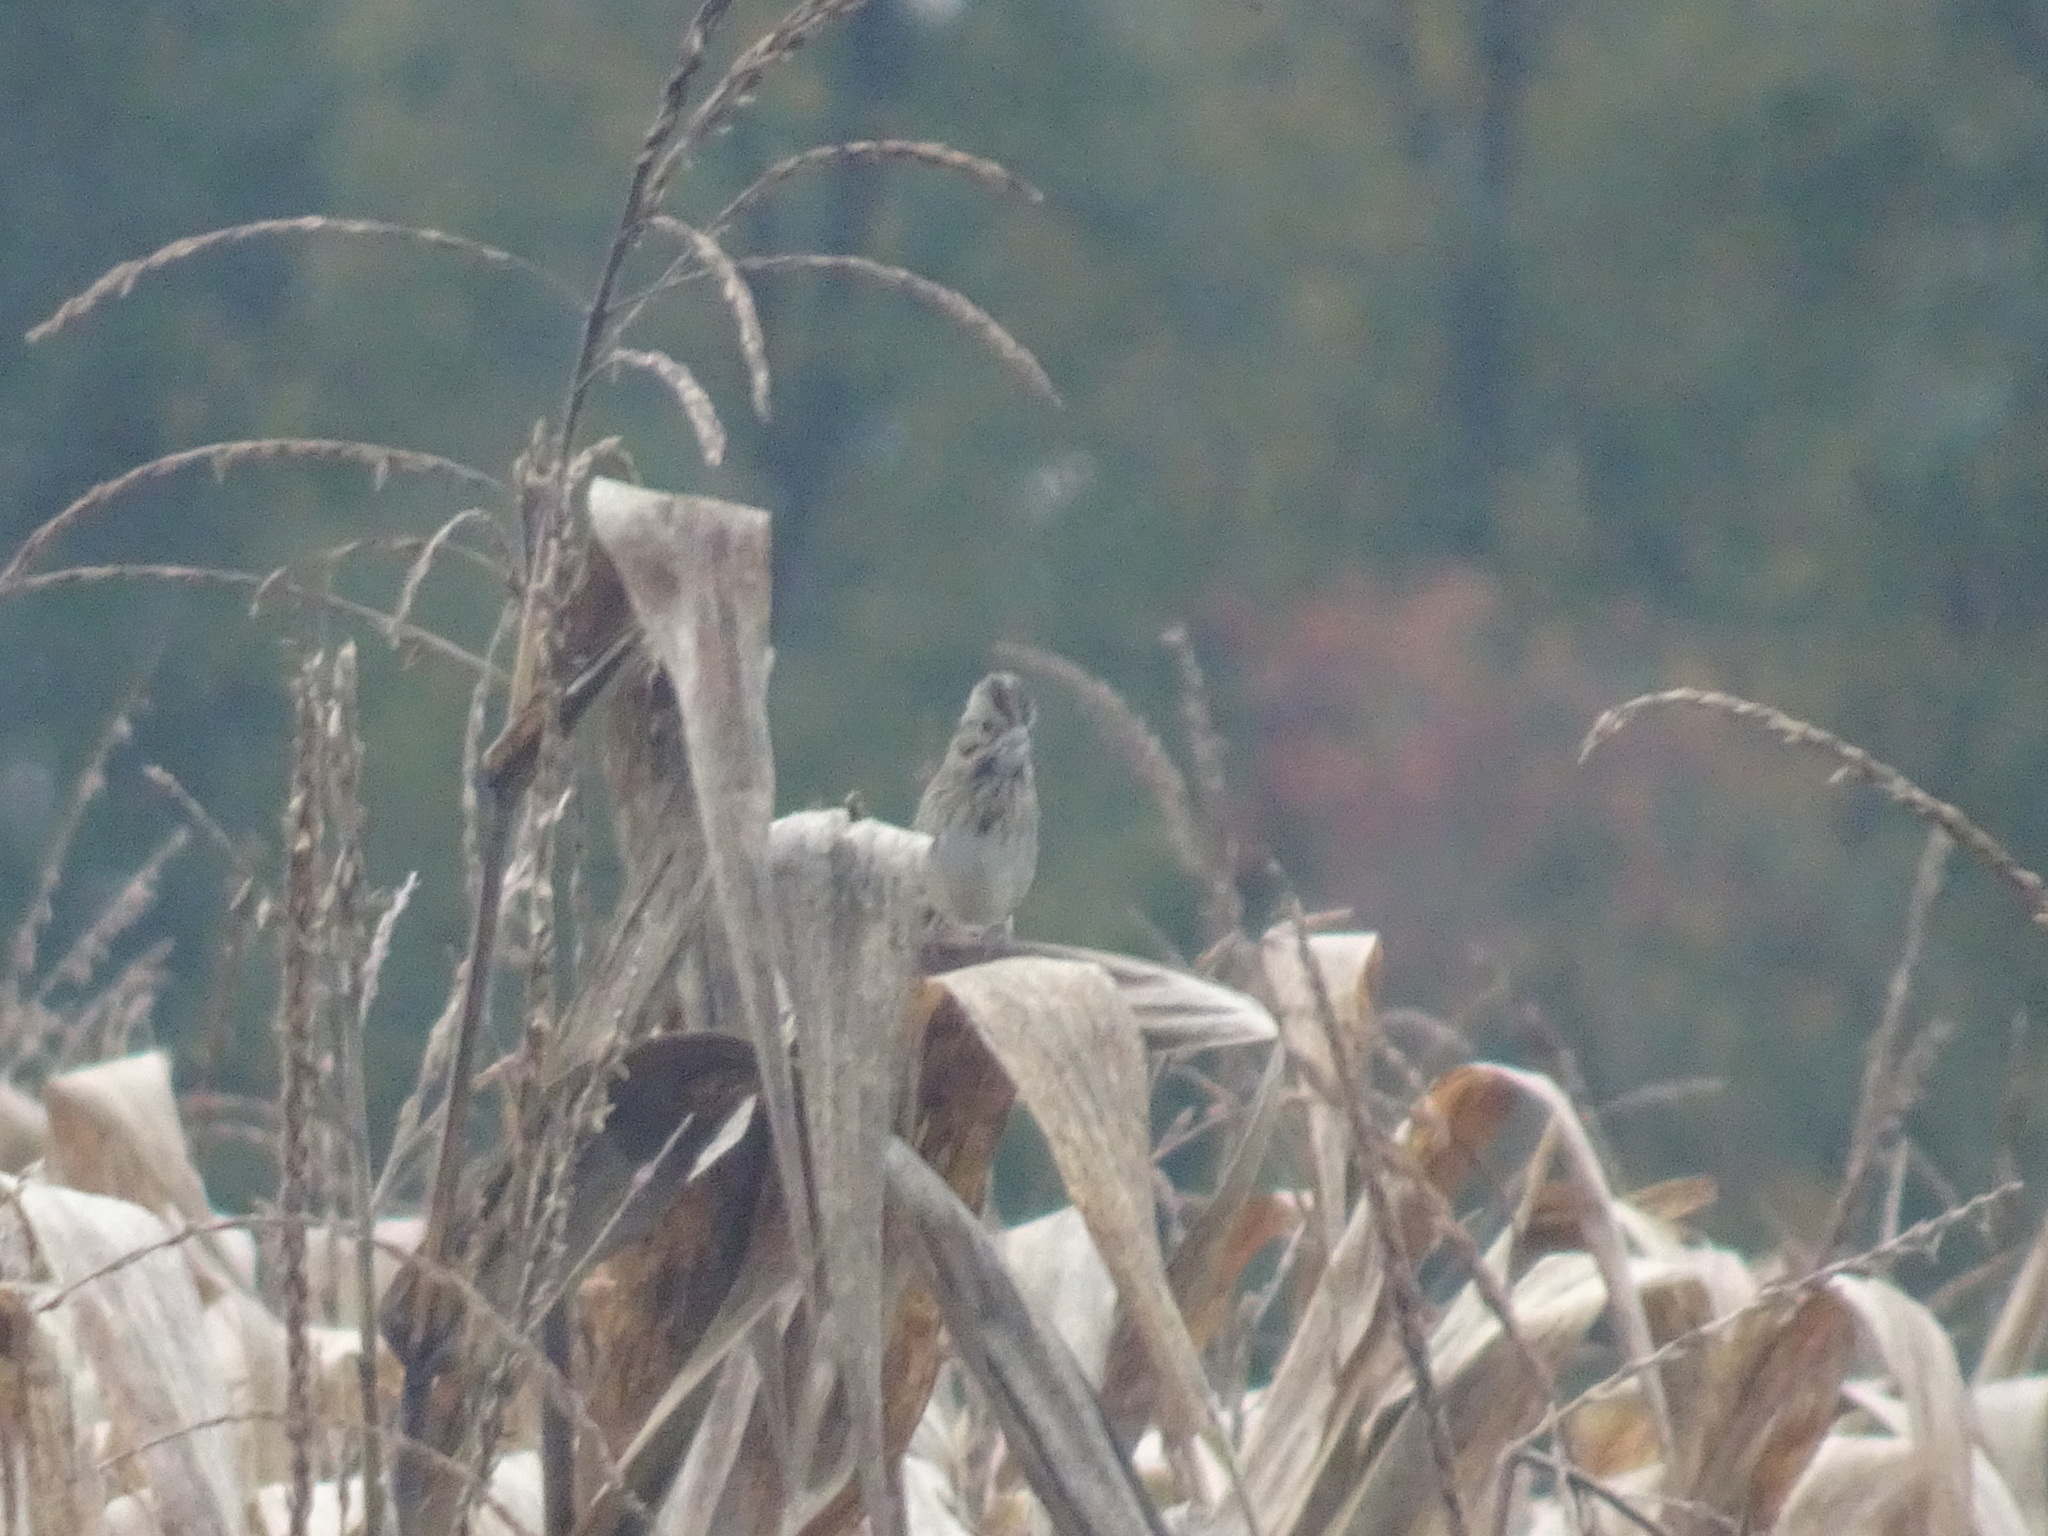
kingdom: Animalia
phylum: Chordata
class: Aves
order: Passeriformes
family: Passerellidae
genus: Melospiza
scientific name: Melospiza lincolnii
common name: Lincoln's sparrow
